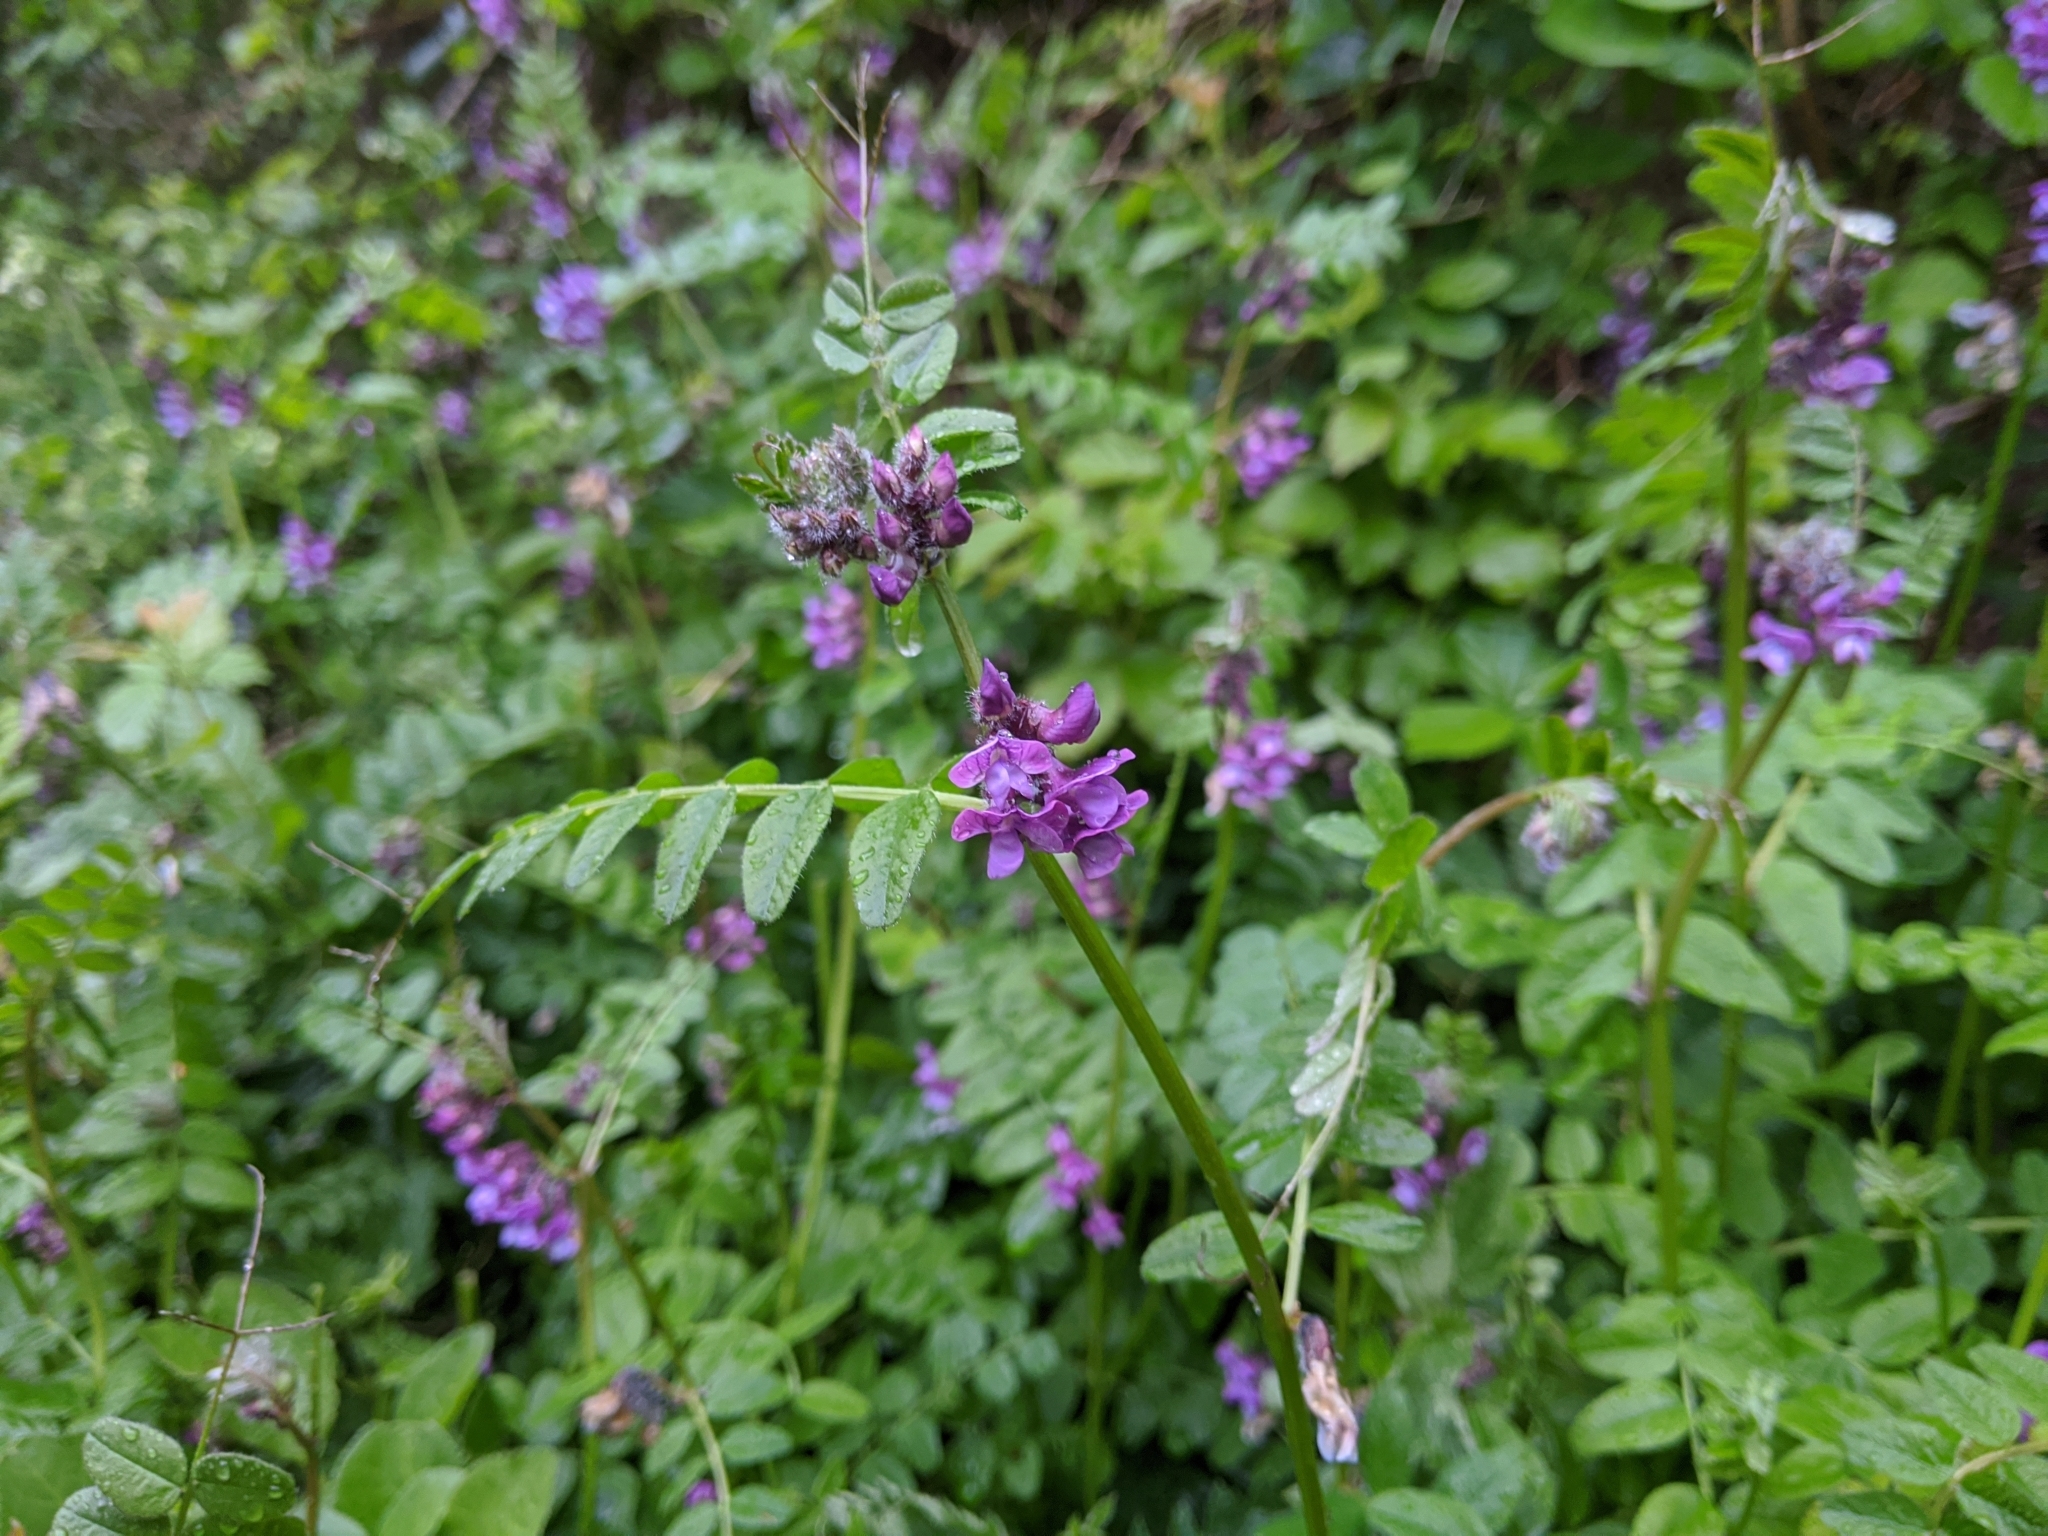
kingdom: Plantae
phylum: Tracheophyta
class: Magnoliopsida
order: Fabales
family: Fabaceae
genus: Vicia
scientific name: Vicia sepium
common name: Bush vetch
